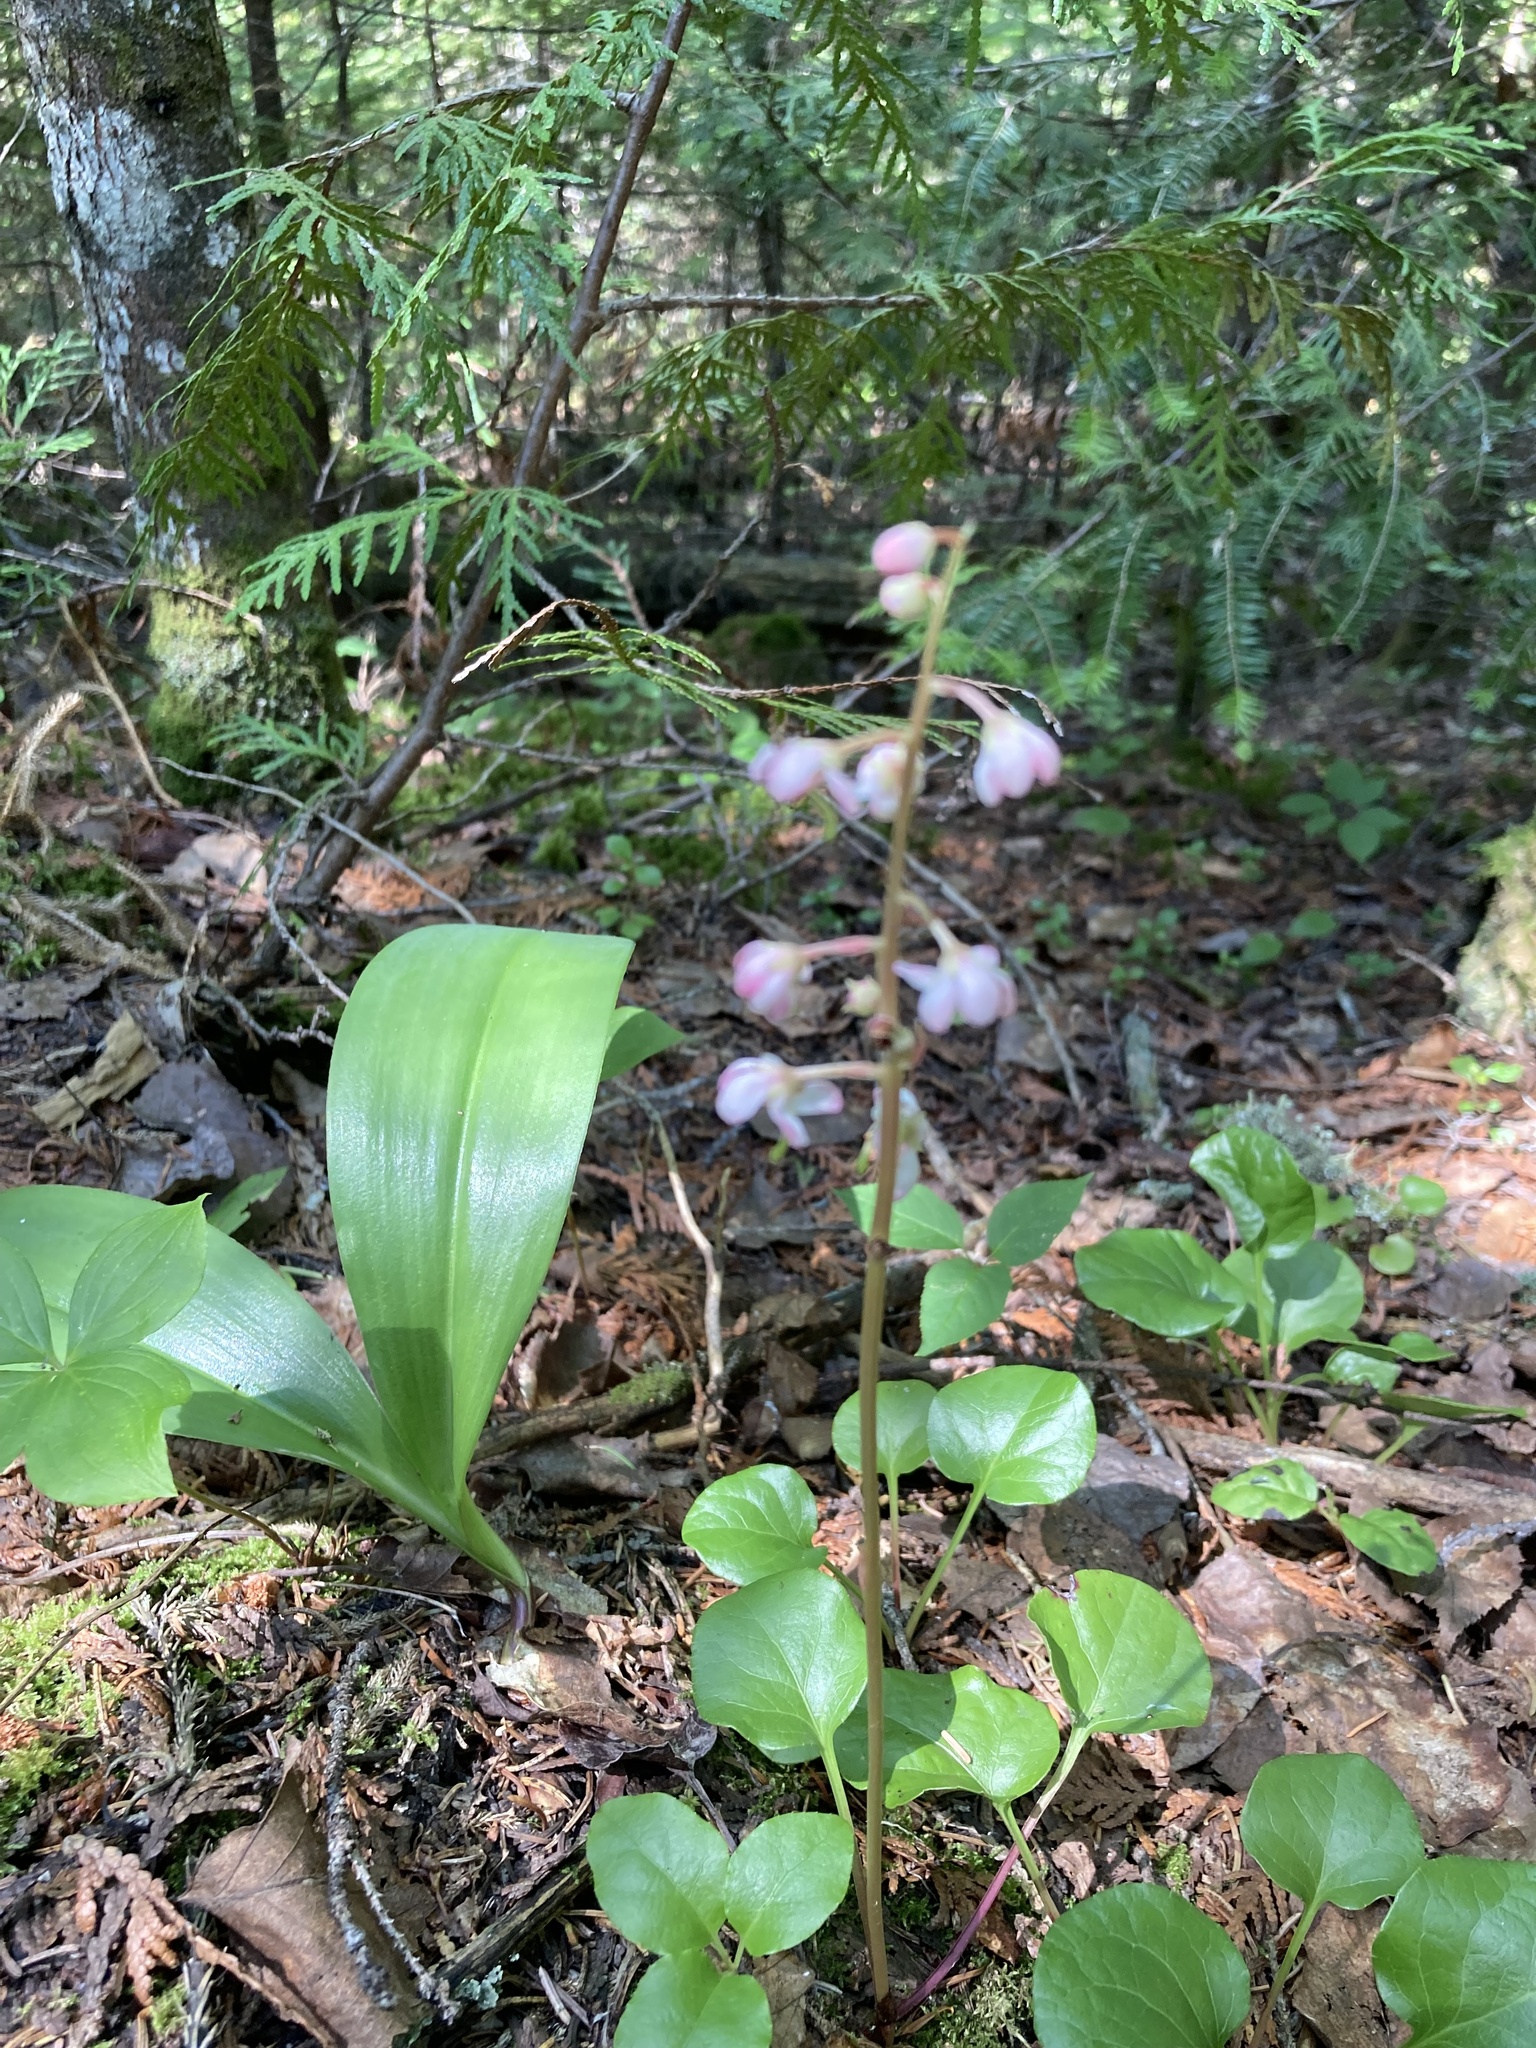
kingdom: Plantae
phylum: Tracheophyta
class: Magnoliopsida
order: Ericales
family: Ericaceae
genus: Pyrola
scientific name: Pyrola asarifolia
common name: Bog wintergreen
